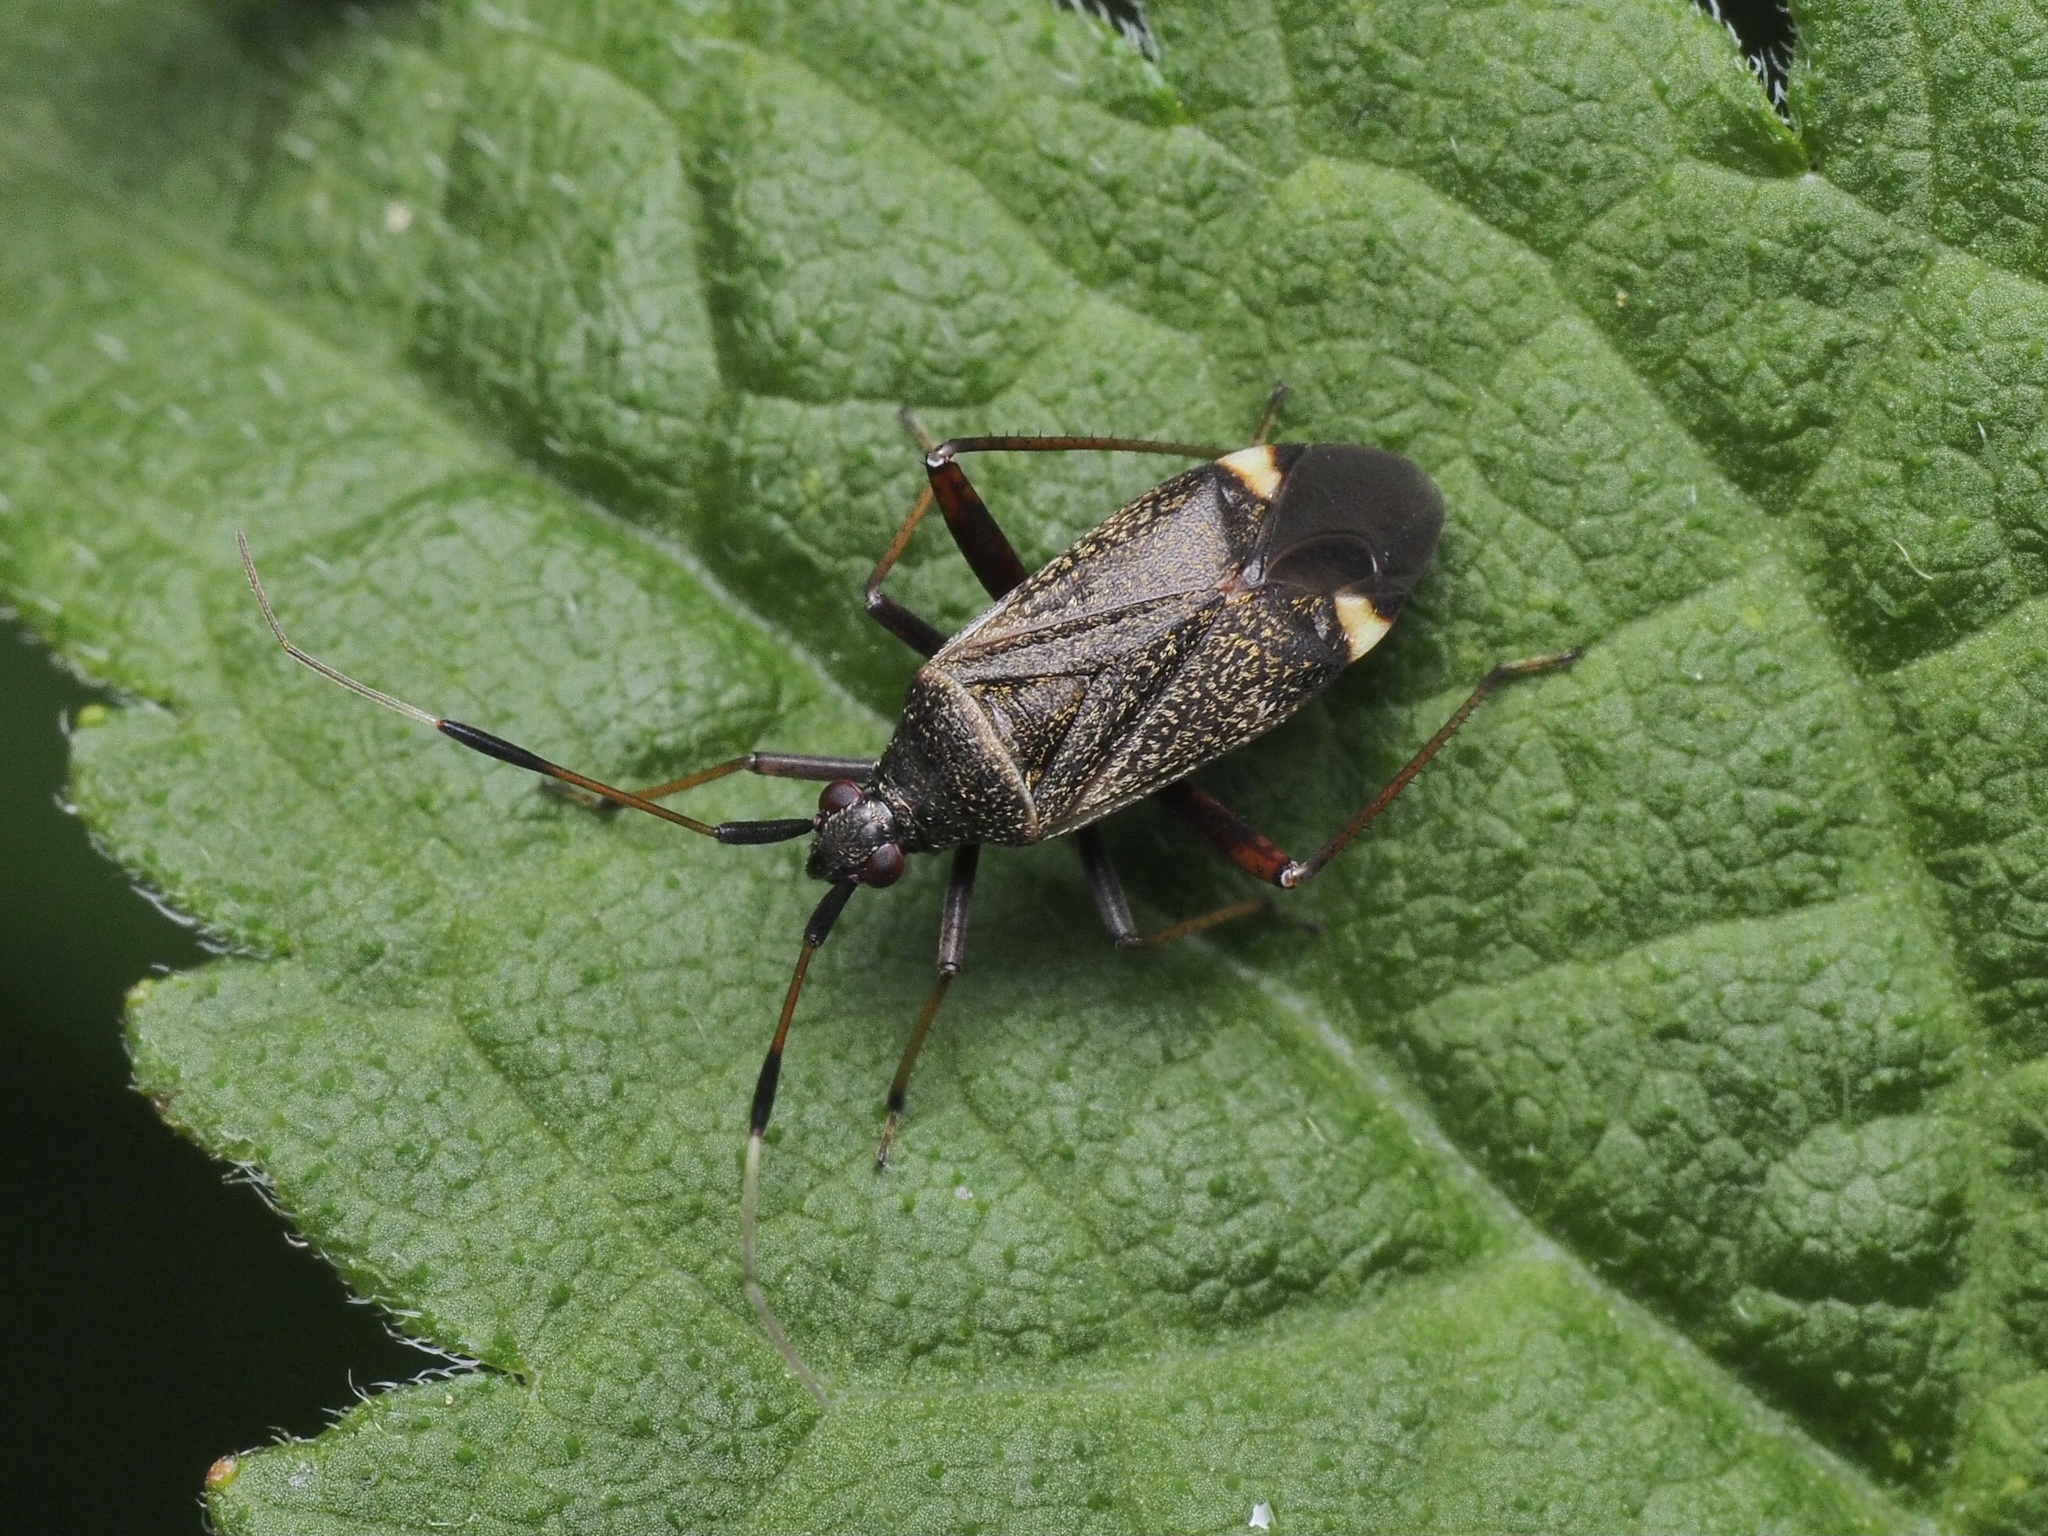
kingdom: Animalia
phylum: Arthropoda
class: Insecta
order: Hemiptera
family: Miridae
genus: Closterotomus
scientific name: Closterotomus biclavatus
